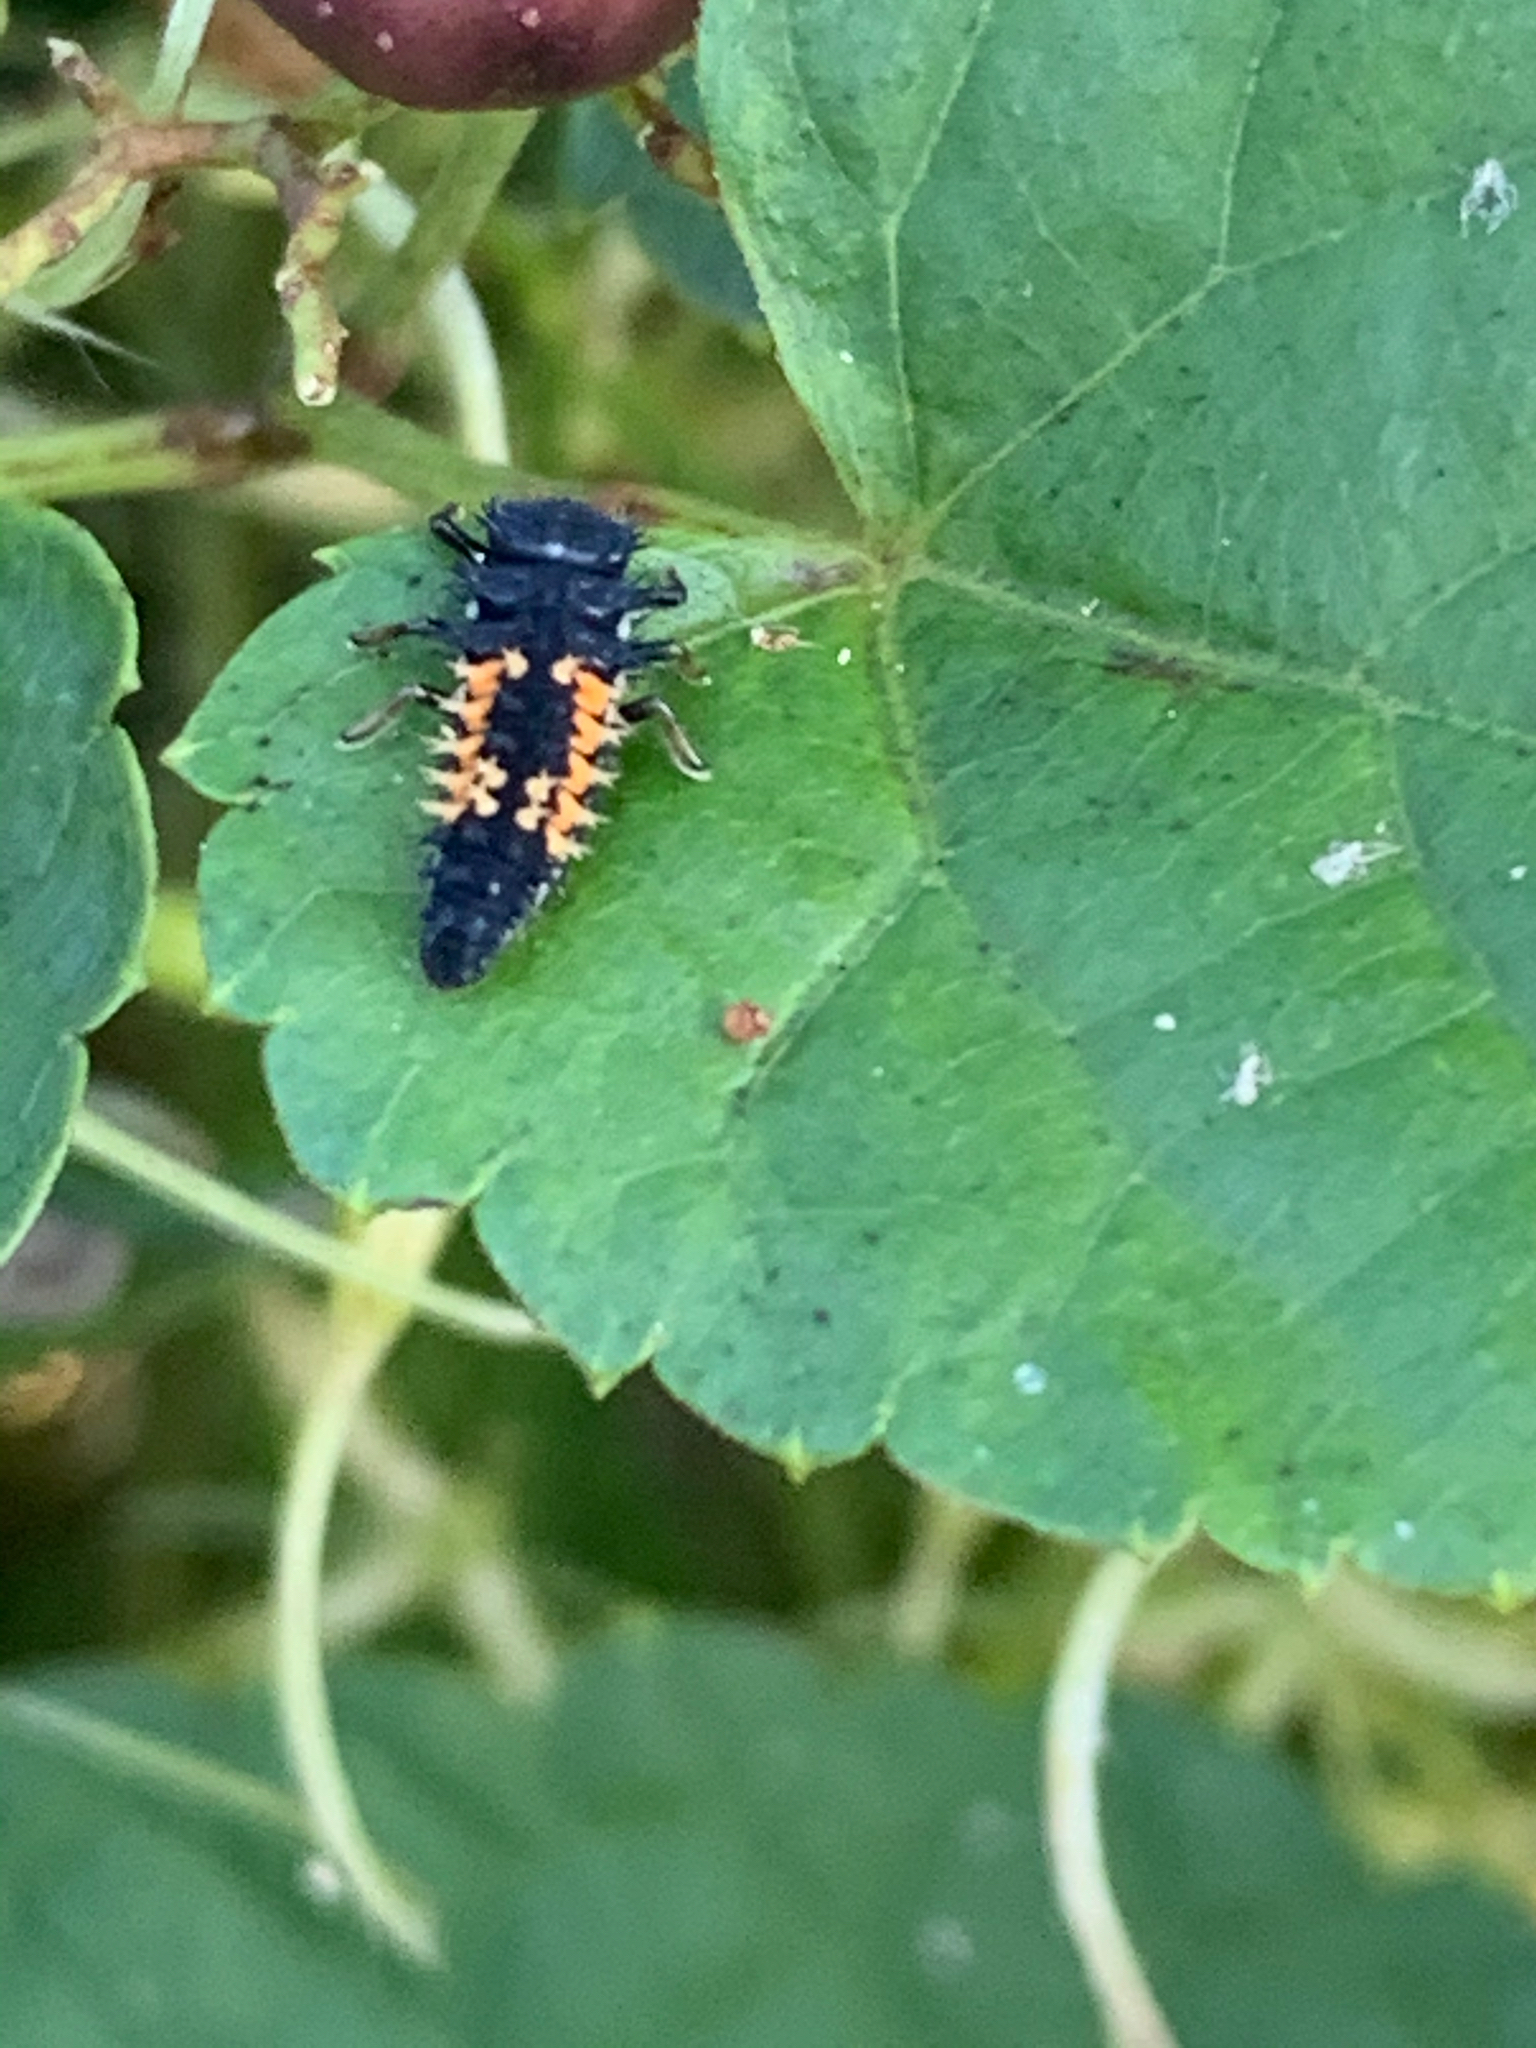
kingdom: Animalia
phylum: Arthropoda
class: Insecta
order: Coleoptera
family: Coccinellidae
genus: Harmonia
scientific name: Harmonia axyridis
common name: Harlequin ladybird
